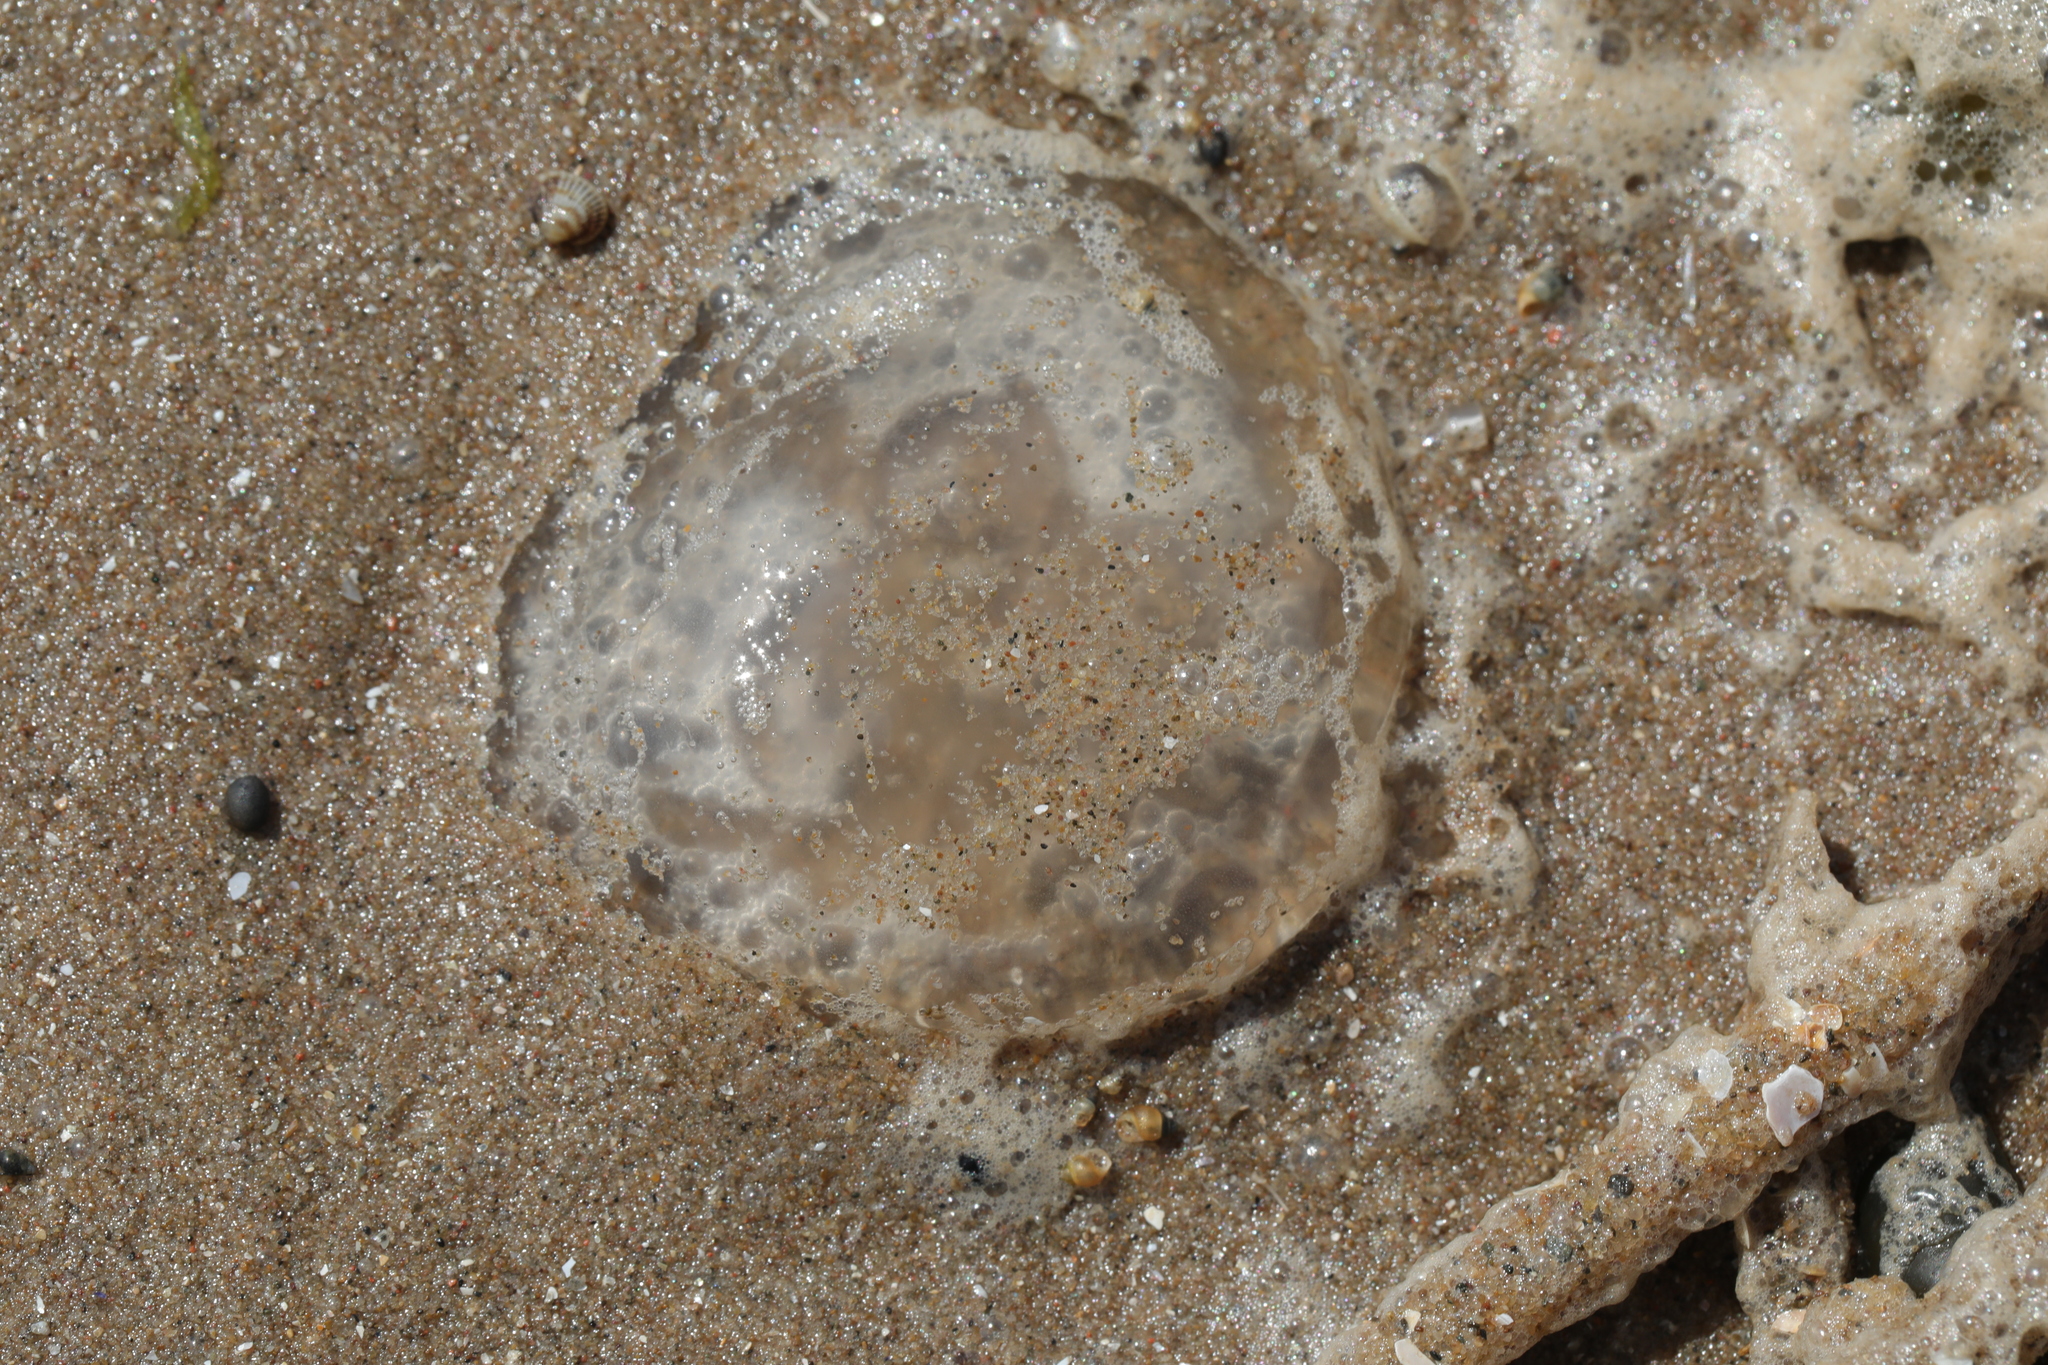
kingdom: Animalia
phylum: Cnidaria
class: Scyphozoa
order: Semaeostomeae
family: Ulmaridae
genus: Aurelia
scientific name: Aurelia aurita
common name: Moon jellyfish
